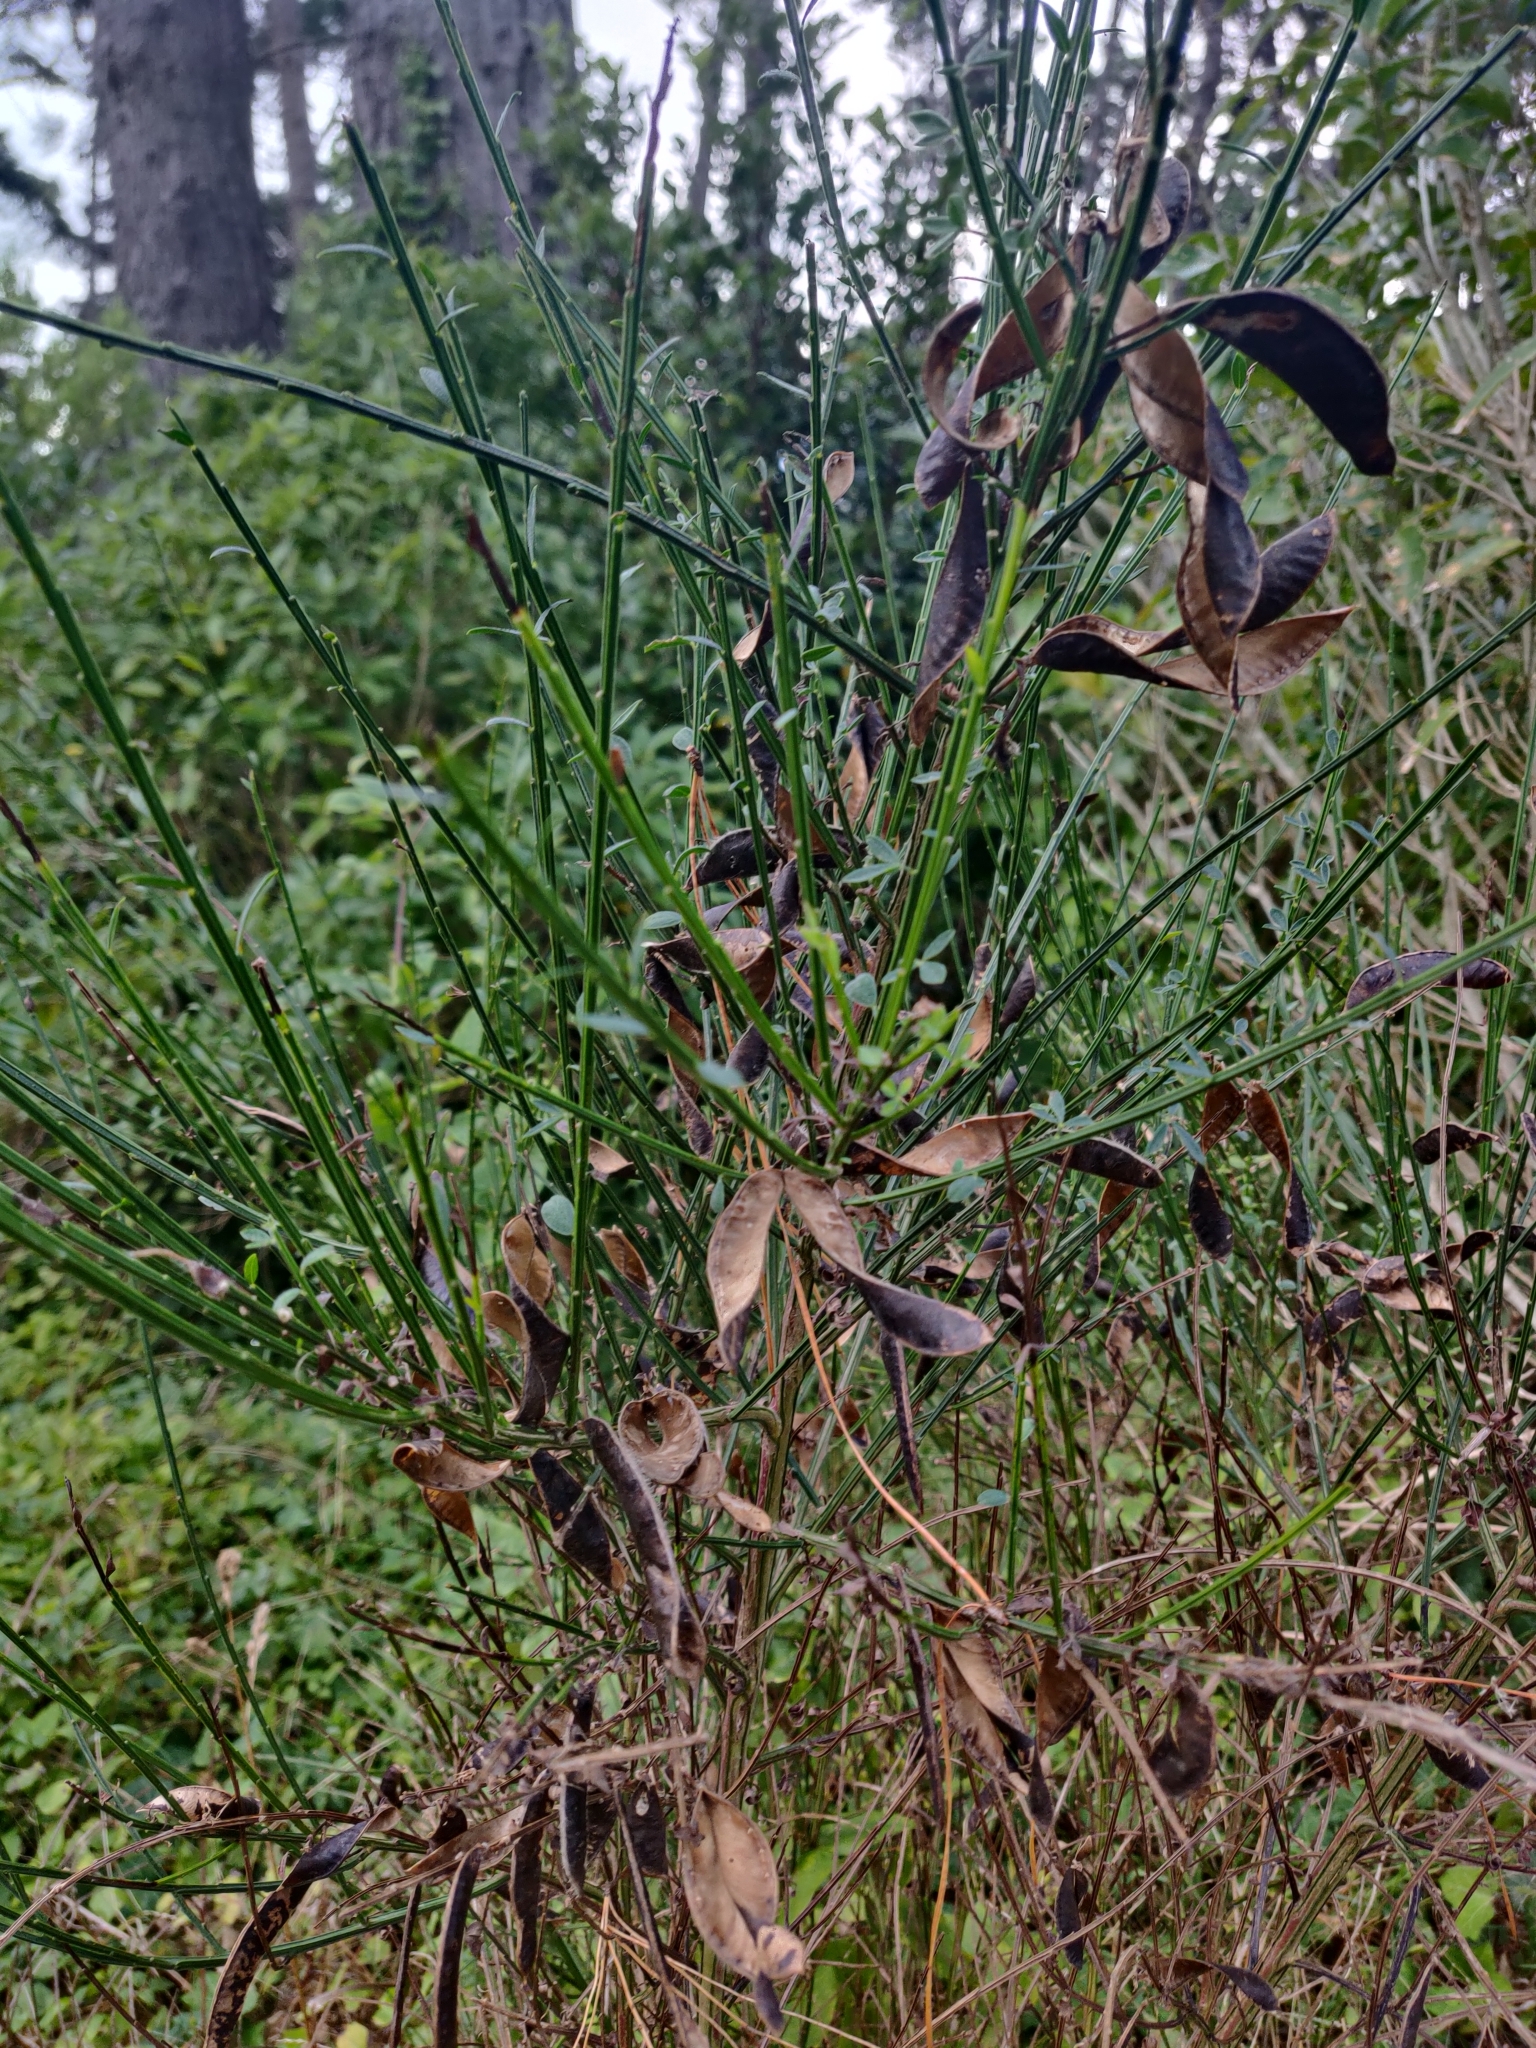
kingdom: Plantae
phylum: Tracheophyta
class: Magnoliopsida
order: Fabales
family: Fabaceae
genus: Cytisus
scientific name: Cytisus scoparius
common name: Scotch broom
